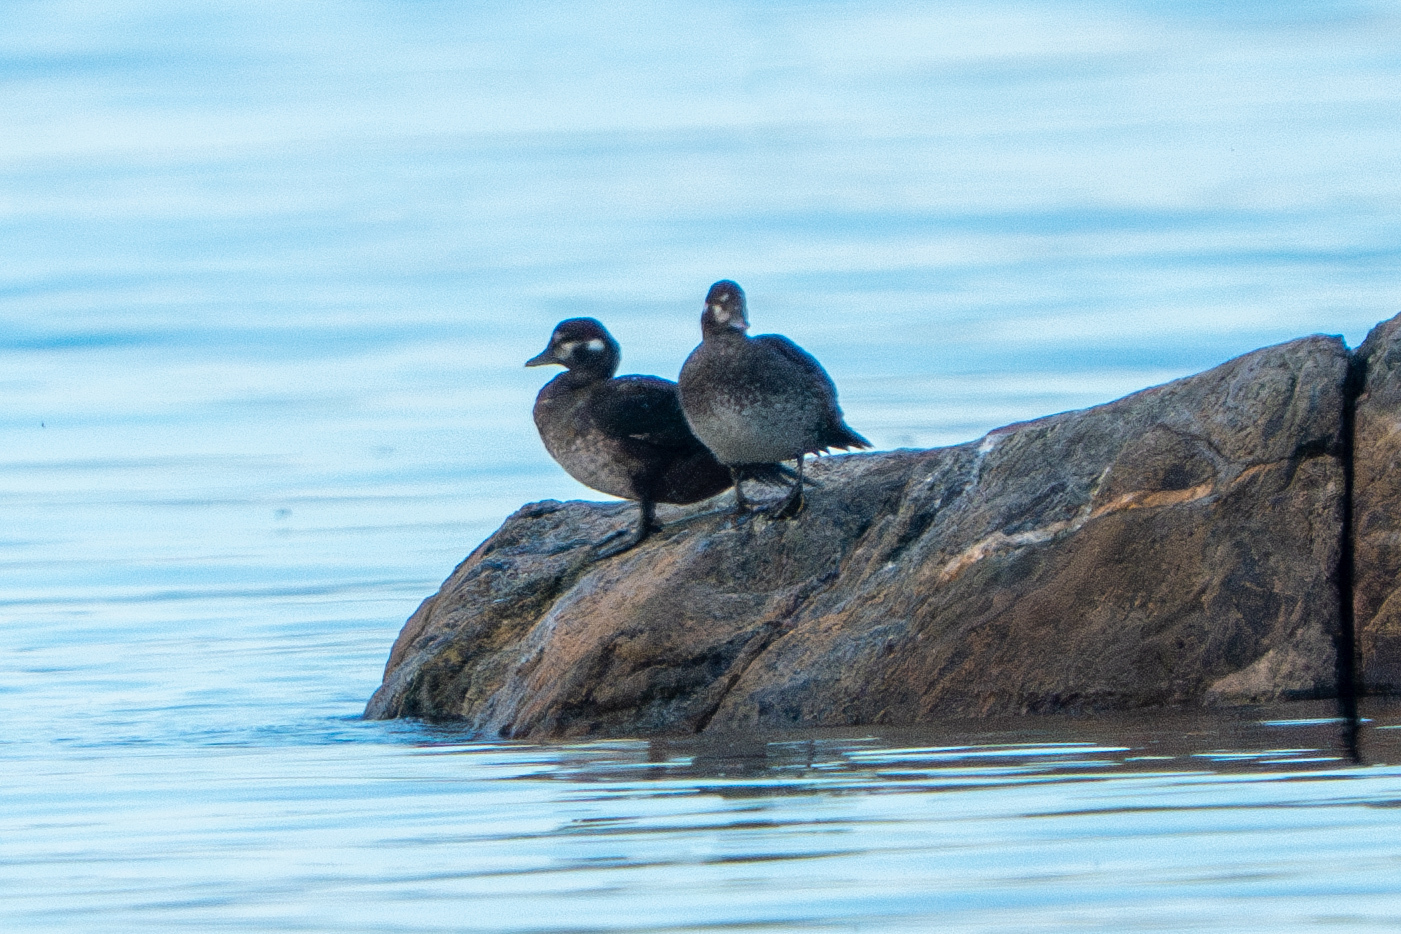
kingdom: Animalia
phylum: Chordata
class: Aves
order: Anseriformes
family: Anatidae
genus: Histrionicus
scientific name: Histrionicus histrionicus
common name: Harlequin duck
